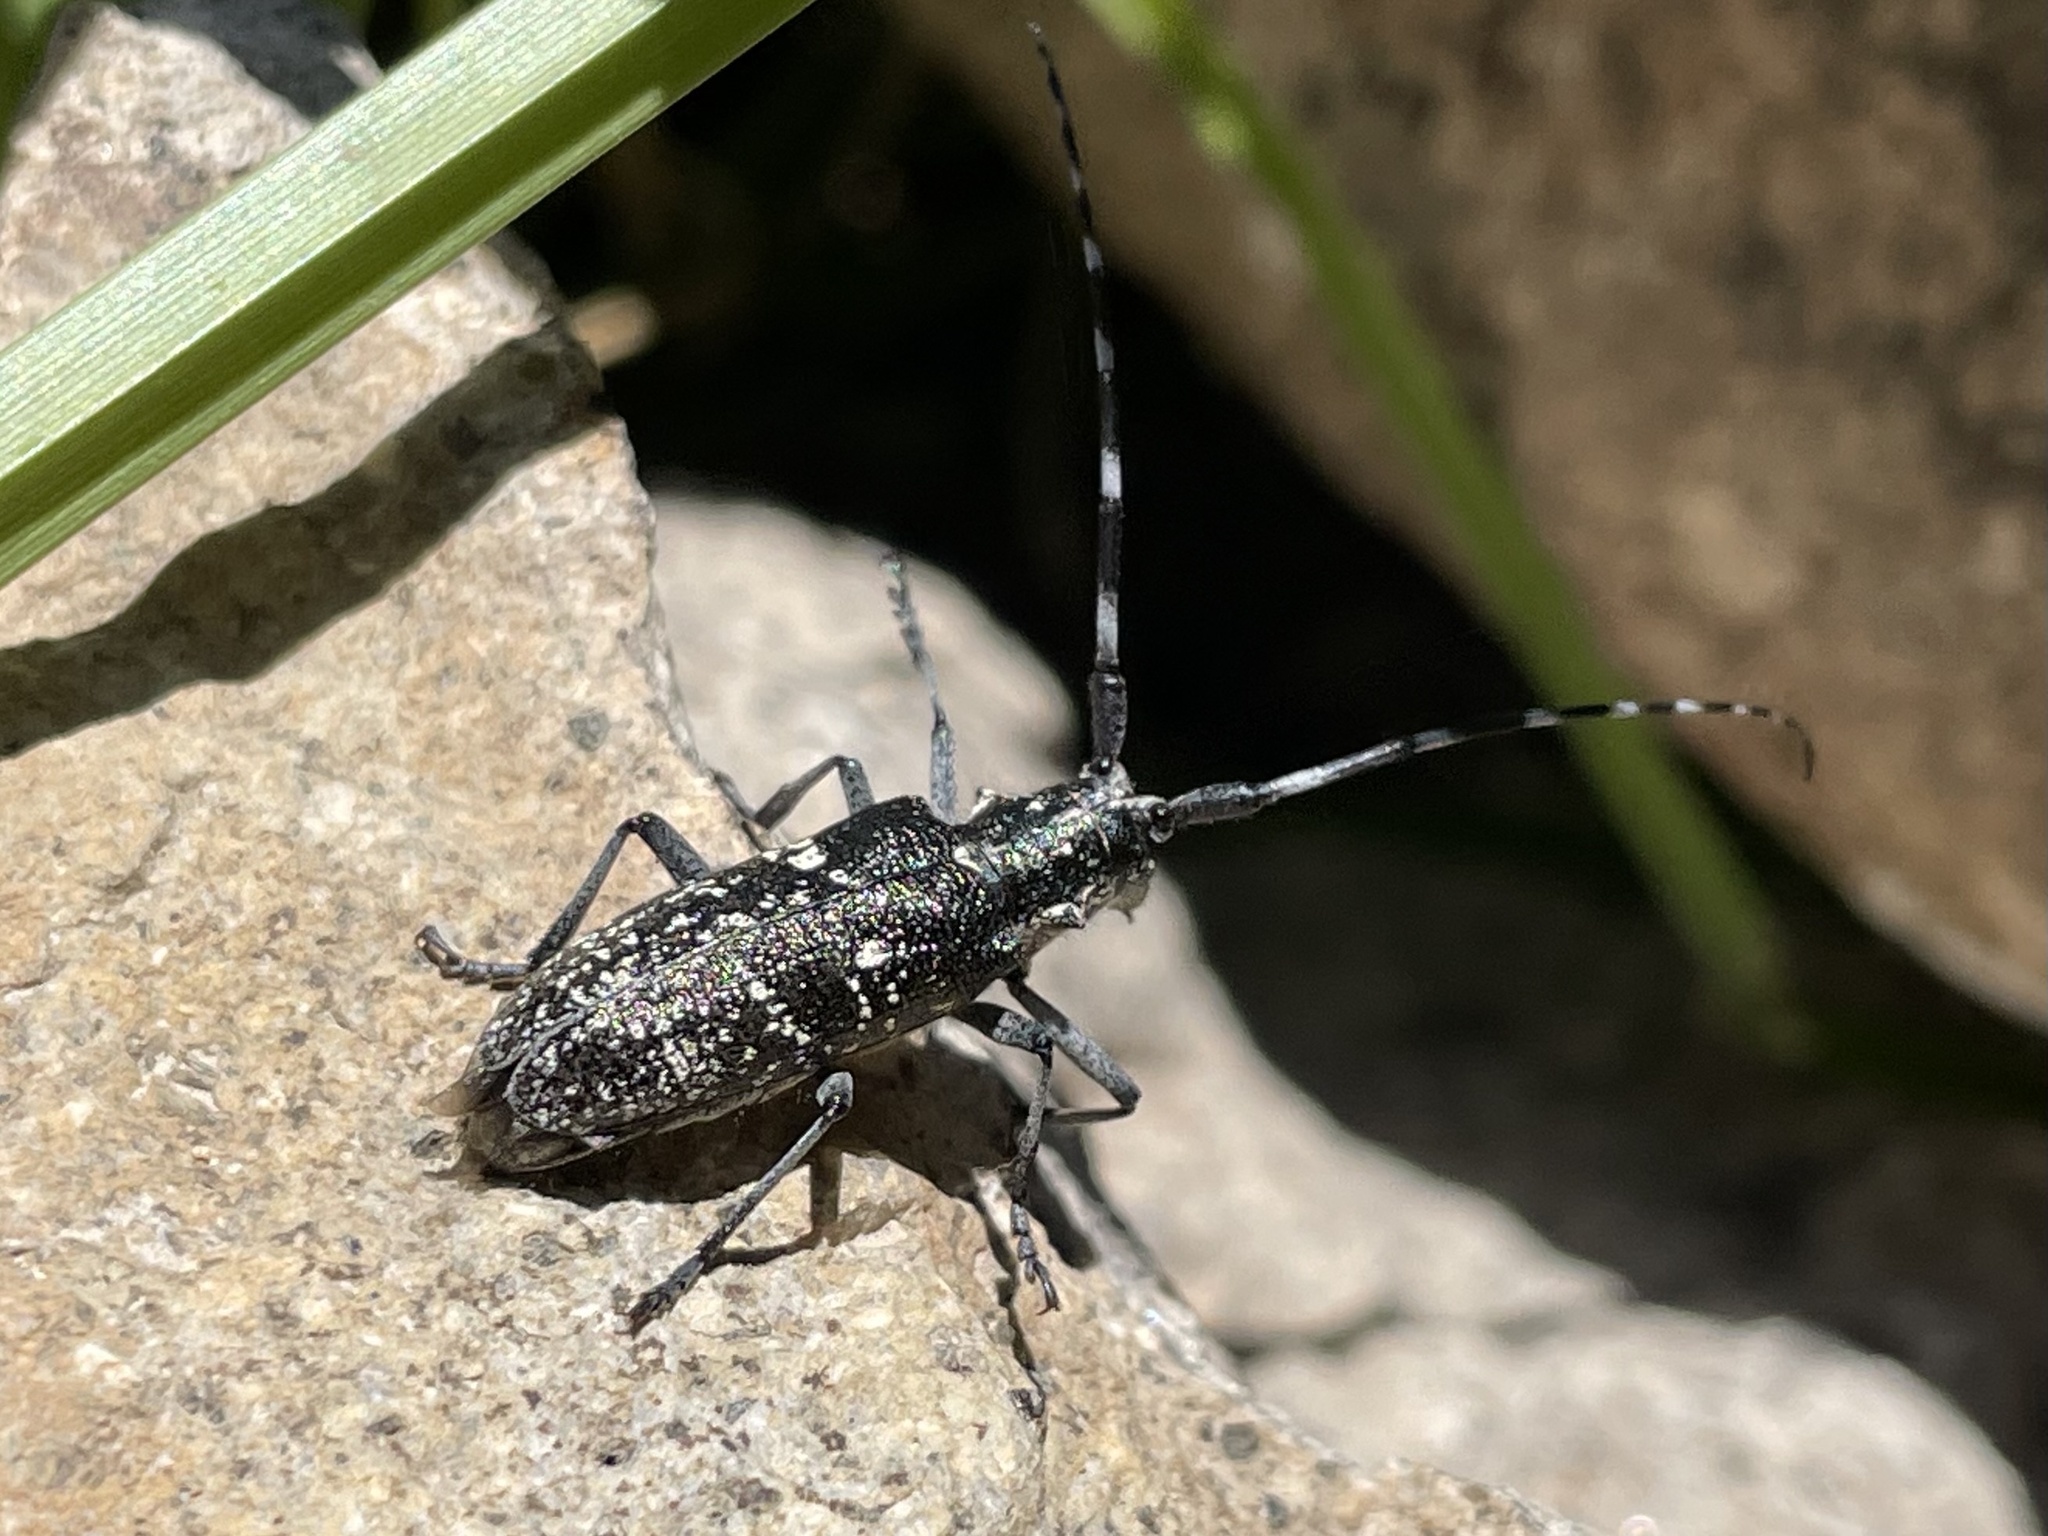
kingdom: Animalia
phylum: Arthropoda
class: Insecta
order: Coleoptera
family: Cerambycidae
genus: Monochamus
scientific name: Monochamus scutellatus
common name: White-spotted sawyer beetle
